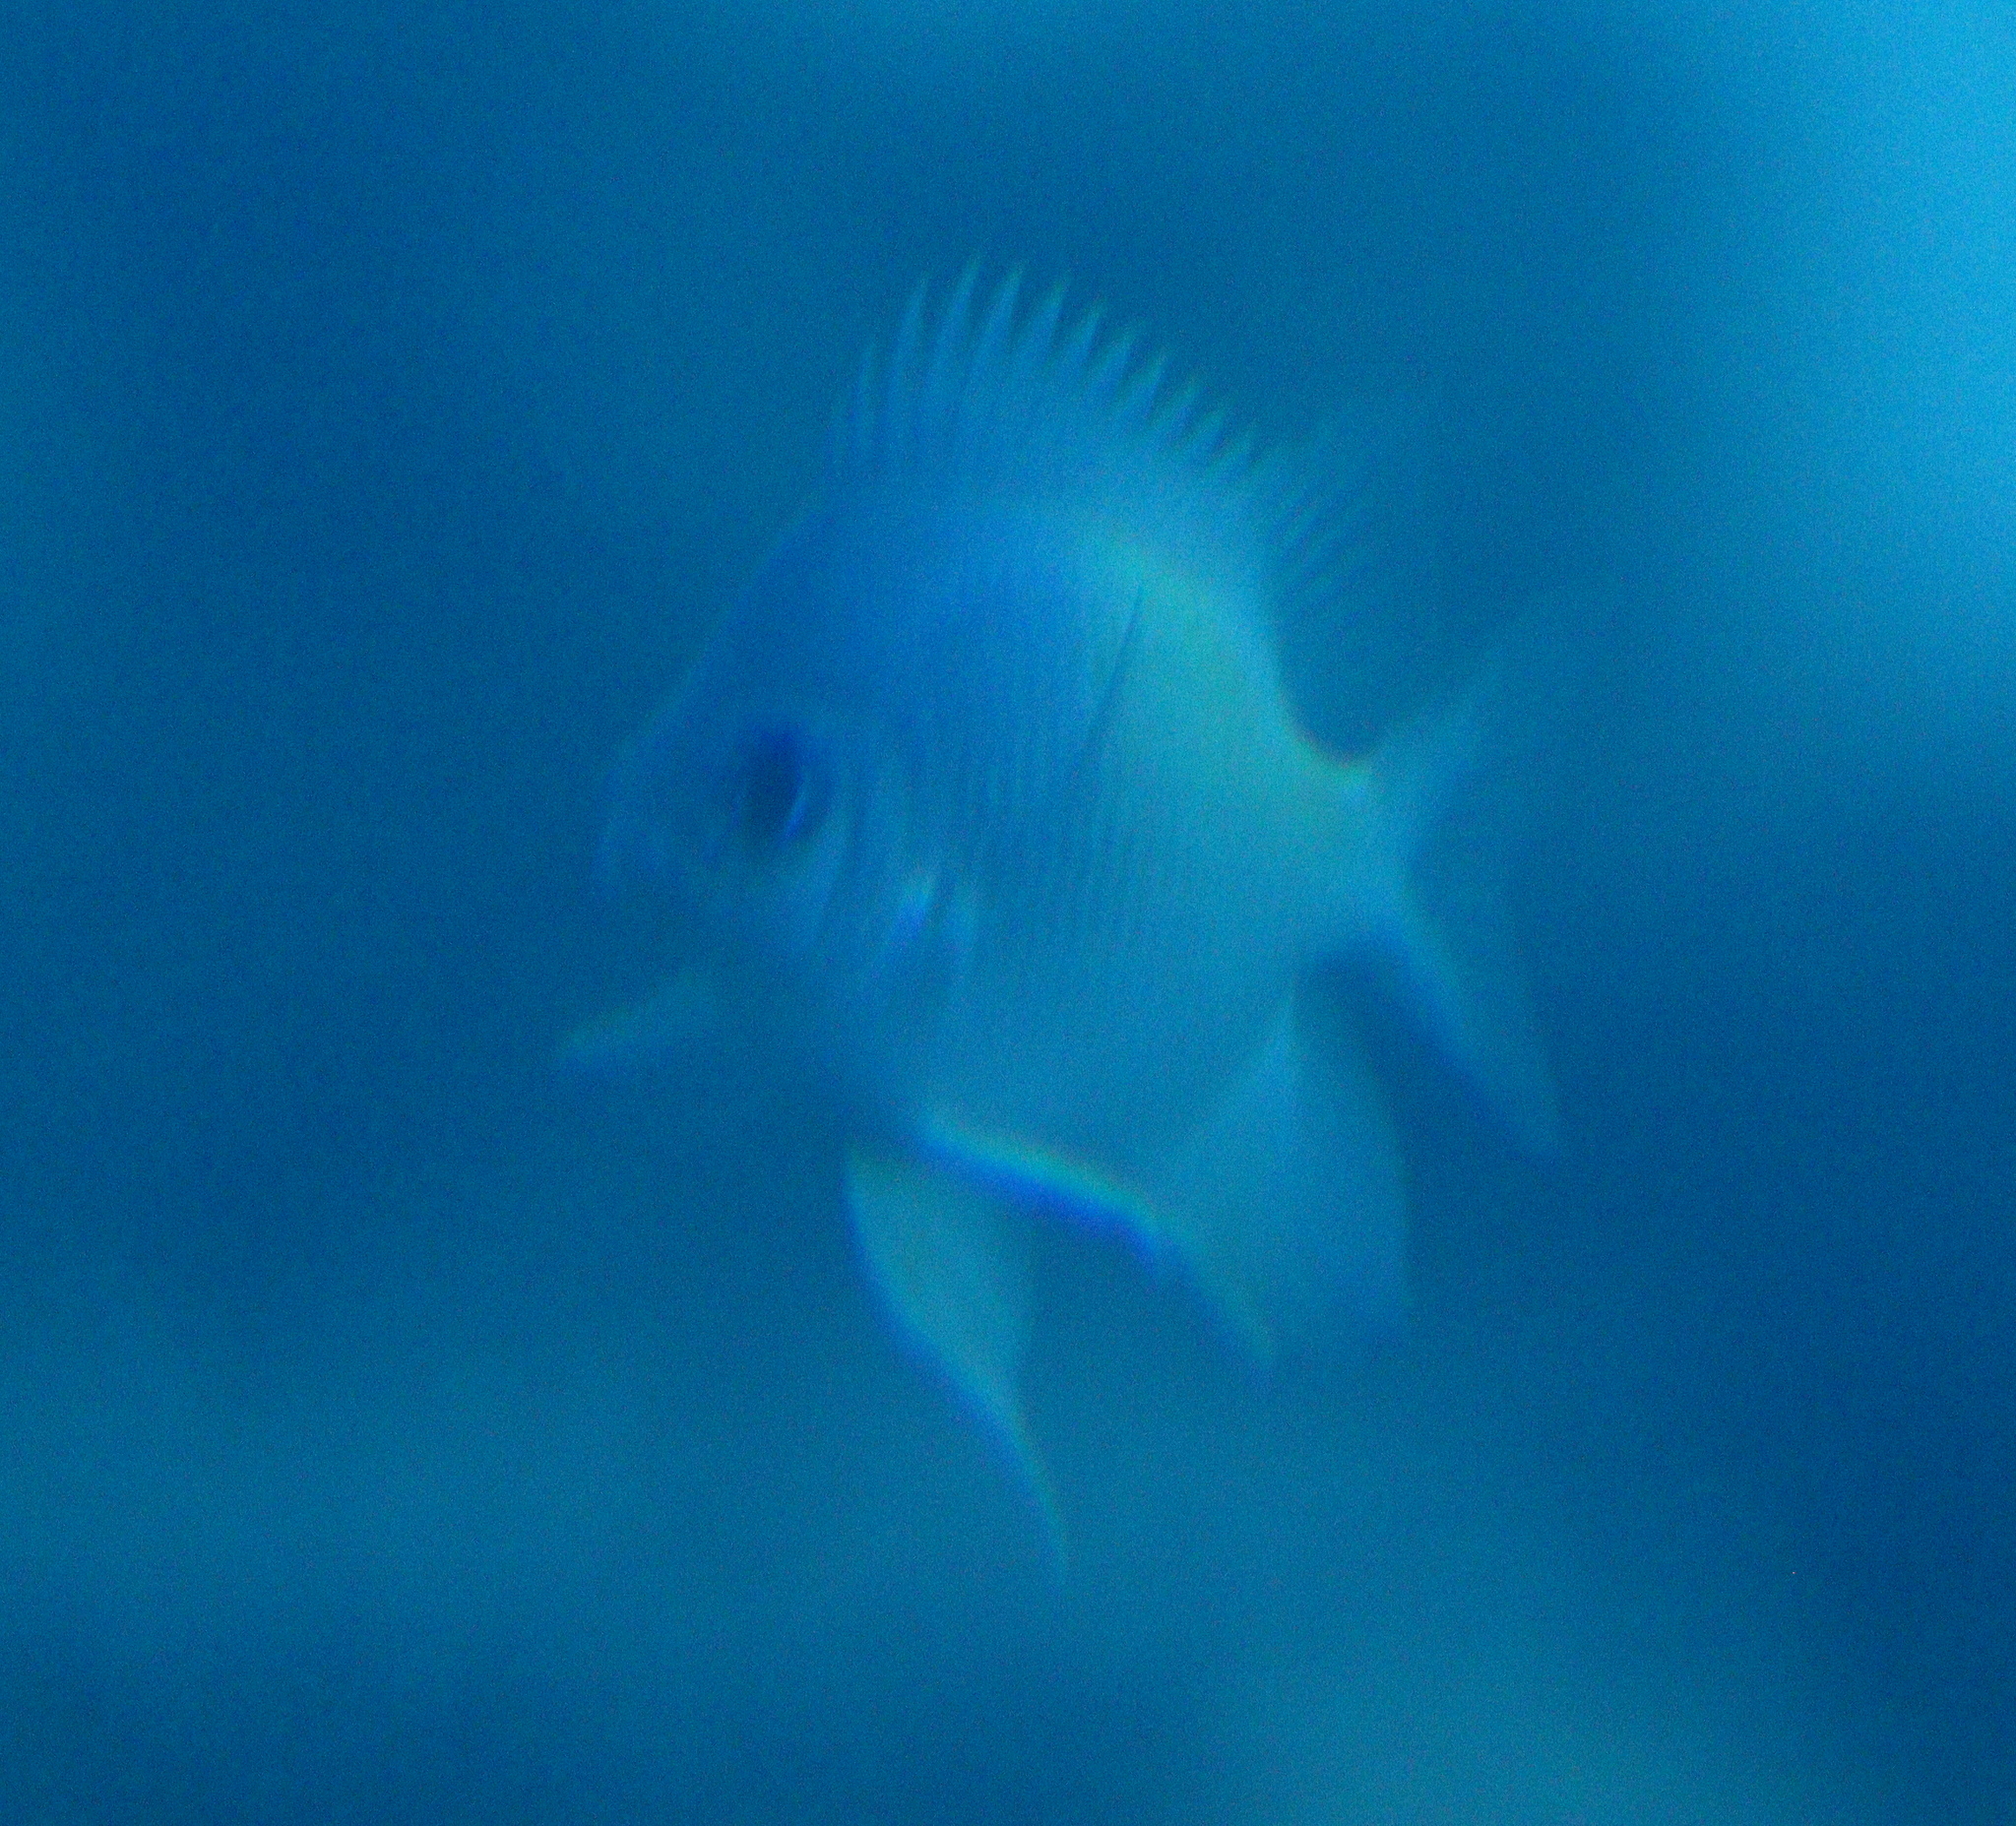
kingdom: Animalia
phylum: Chordata
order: Perciformes
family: Pomacentridae
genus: Amblyglyphidodon
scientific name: Amblyglyphidodon flavilatus
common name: Yellowfin damsel
